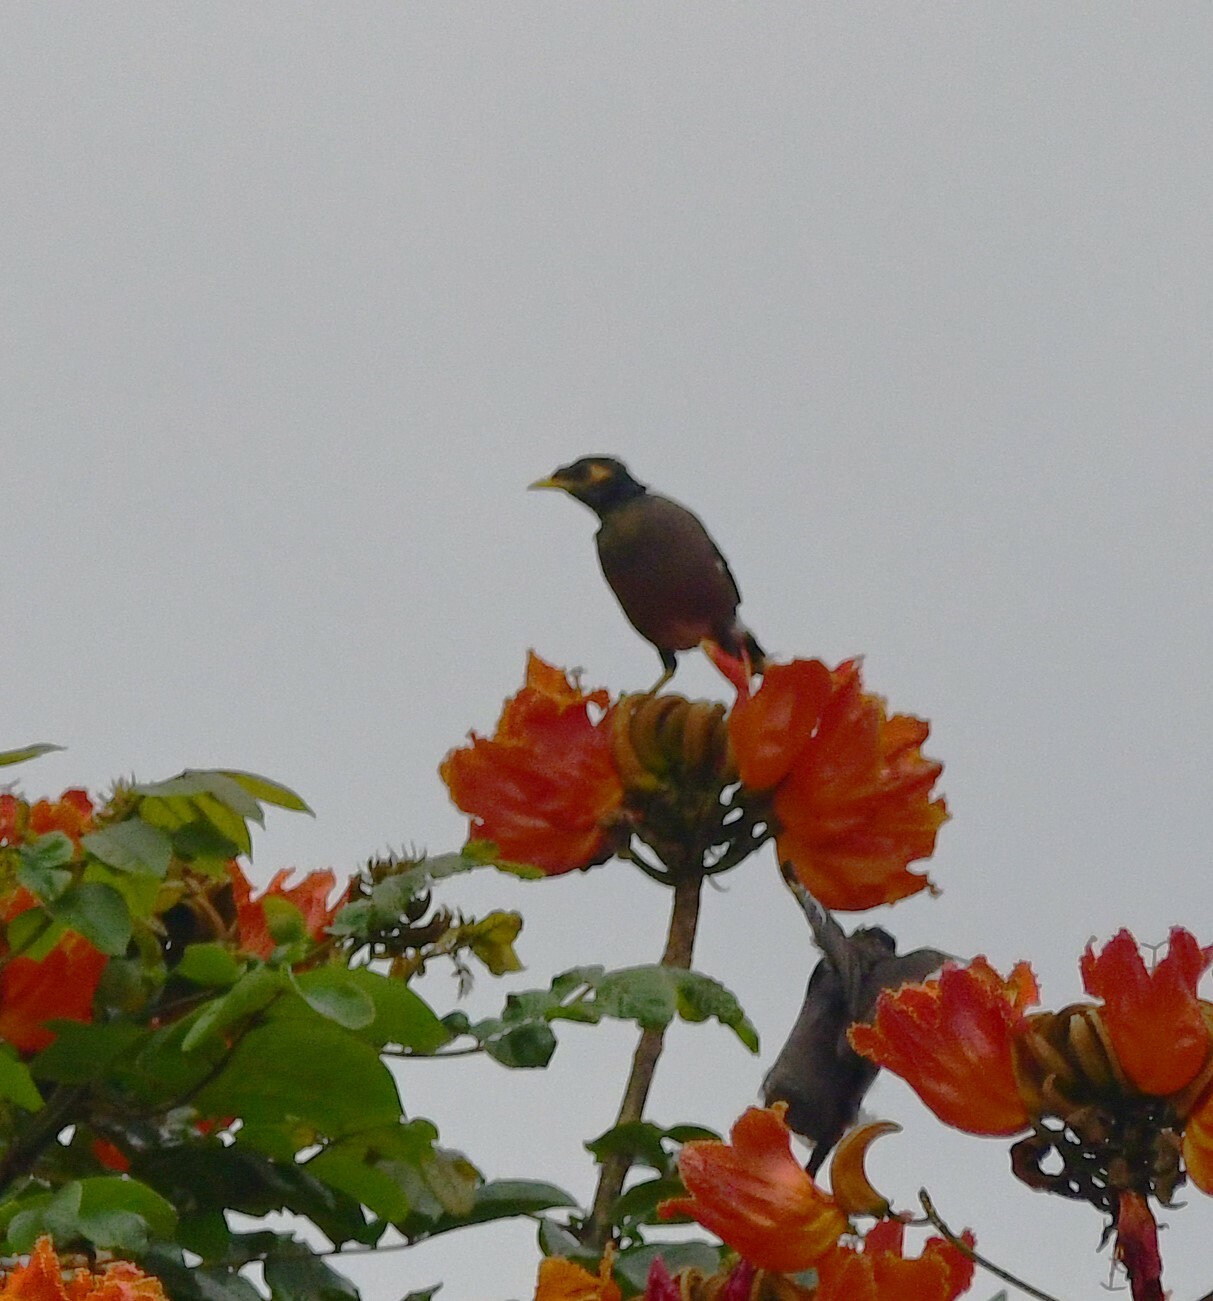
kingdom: Animalia
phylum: Chordata
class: Aves
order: Passeriformes
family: Sturnidae
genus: Acridotheres
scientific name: Acridotheres tristis
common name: Common myna
